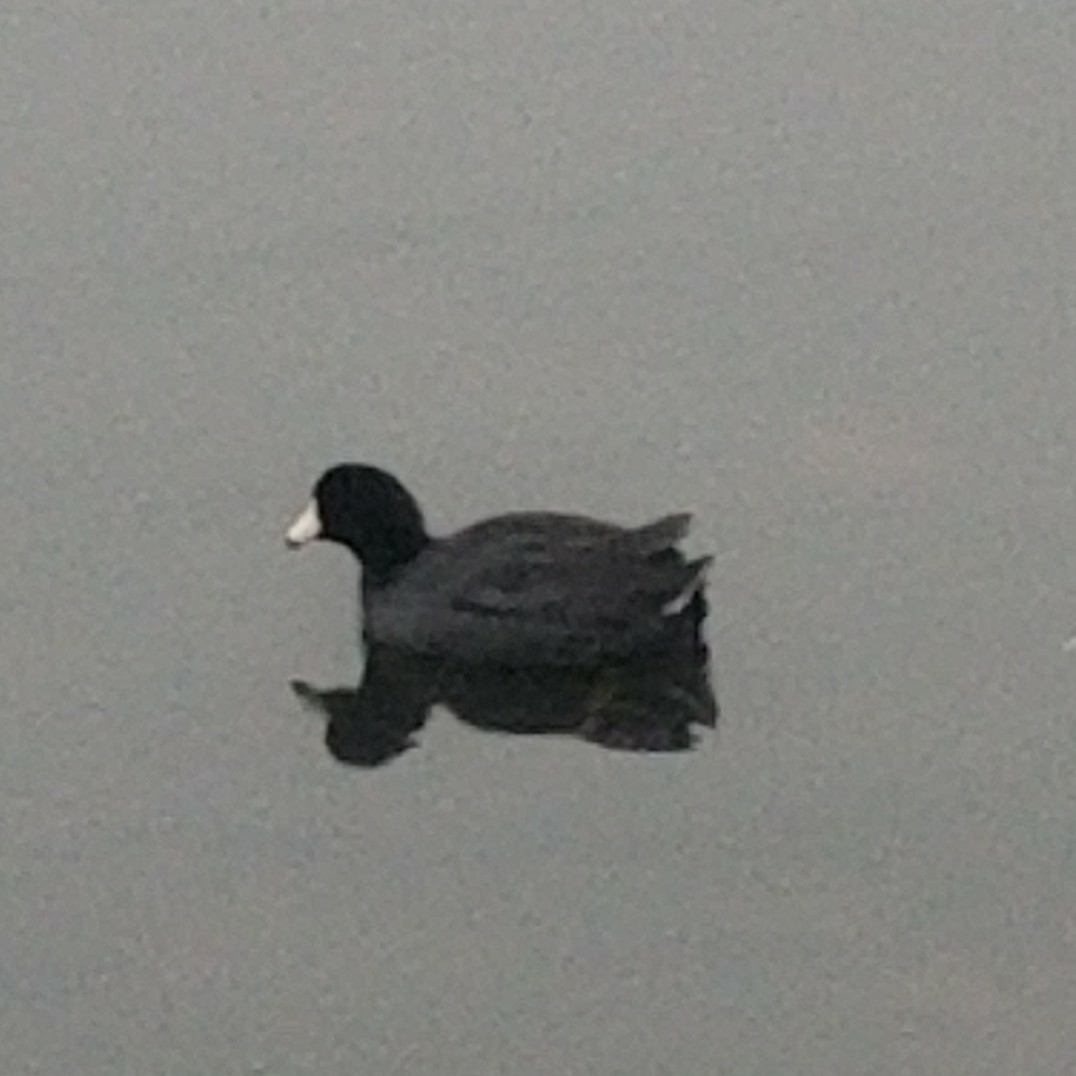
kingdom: Animalia
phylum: Chordata
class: Aves
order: Gruiformes
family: Rallidae
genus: Fulica
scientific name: Fulica americana
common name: American coot
